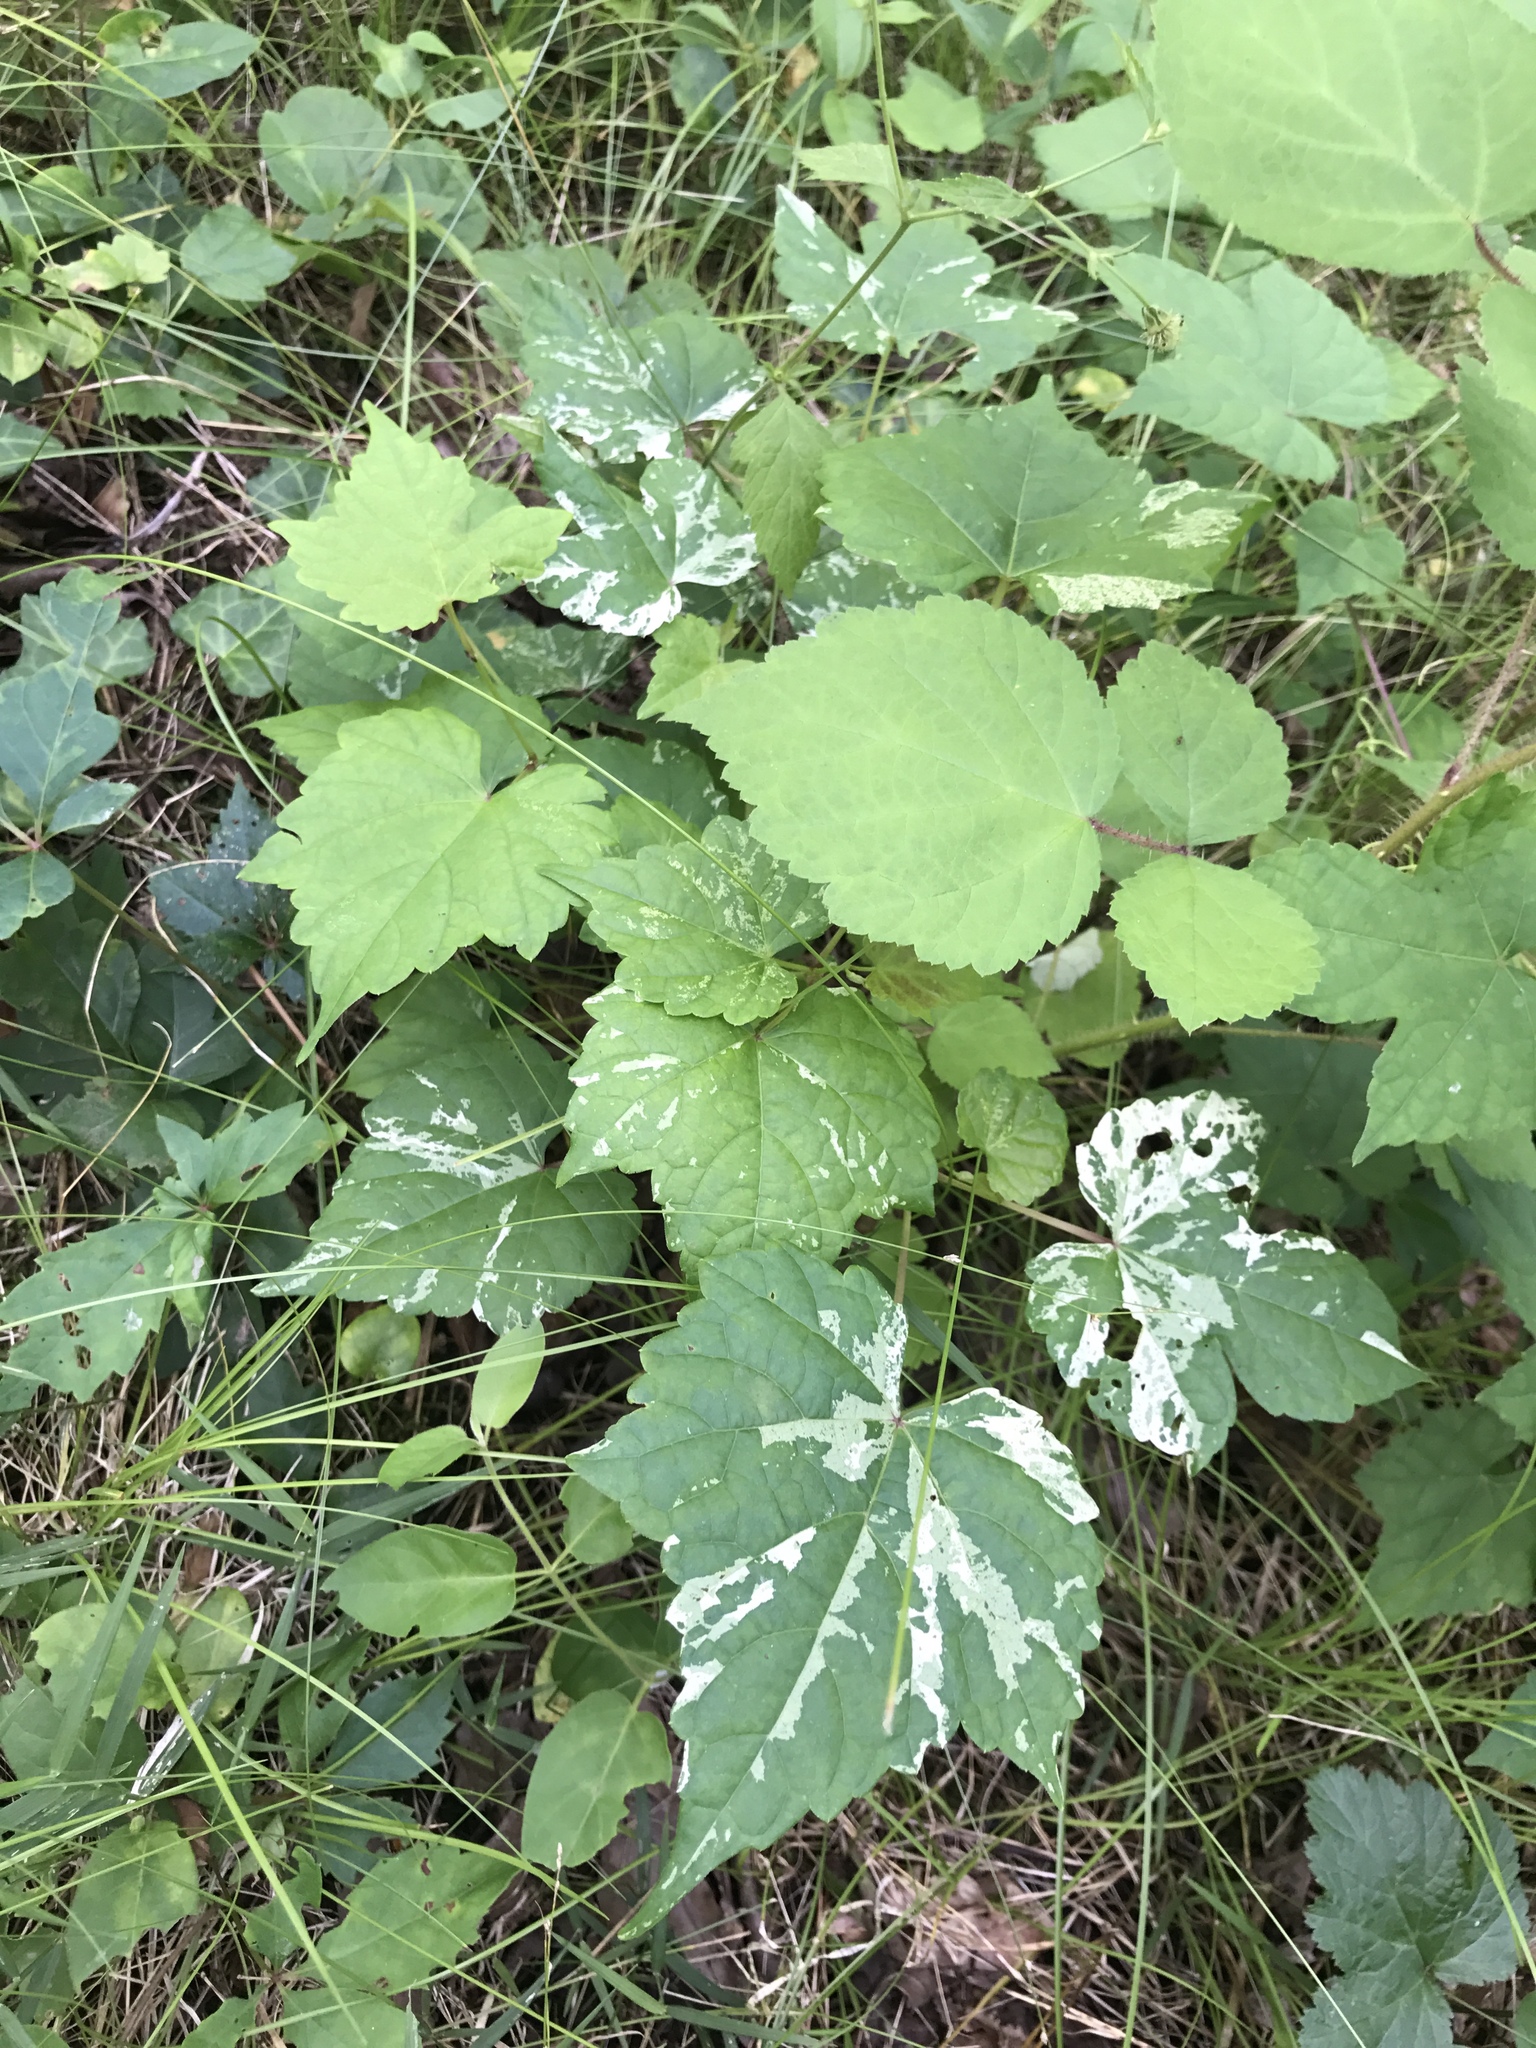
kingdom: Plantae
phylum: Tracheophyta
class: Magnoliopsida
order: Vitales
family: Vitaceae
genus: Ampelopsis
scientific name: Ampelopsis glandulosa
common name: Amur peppervine
